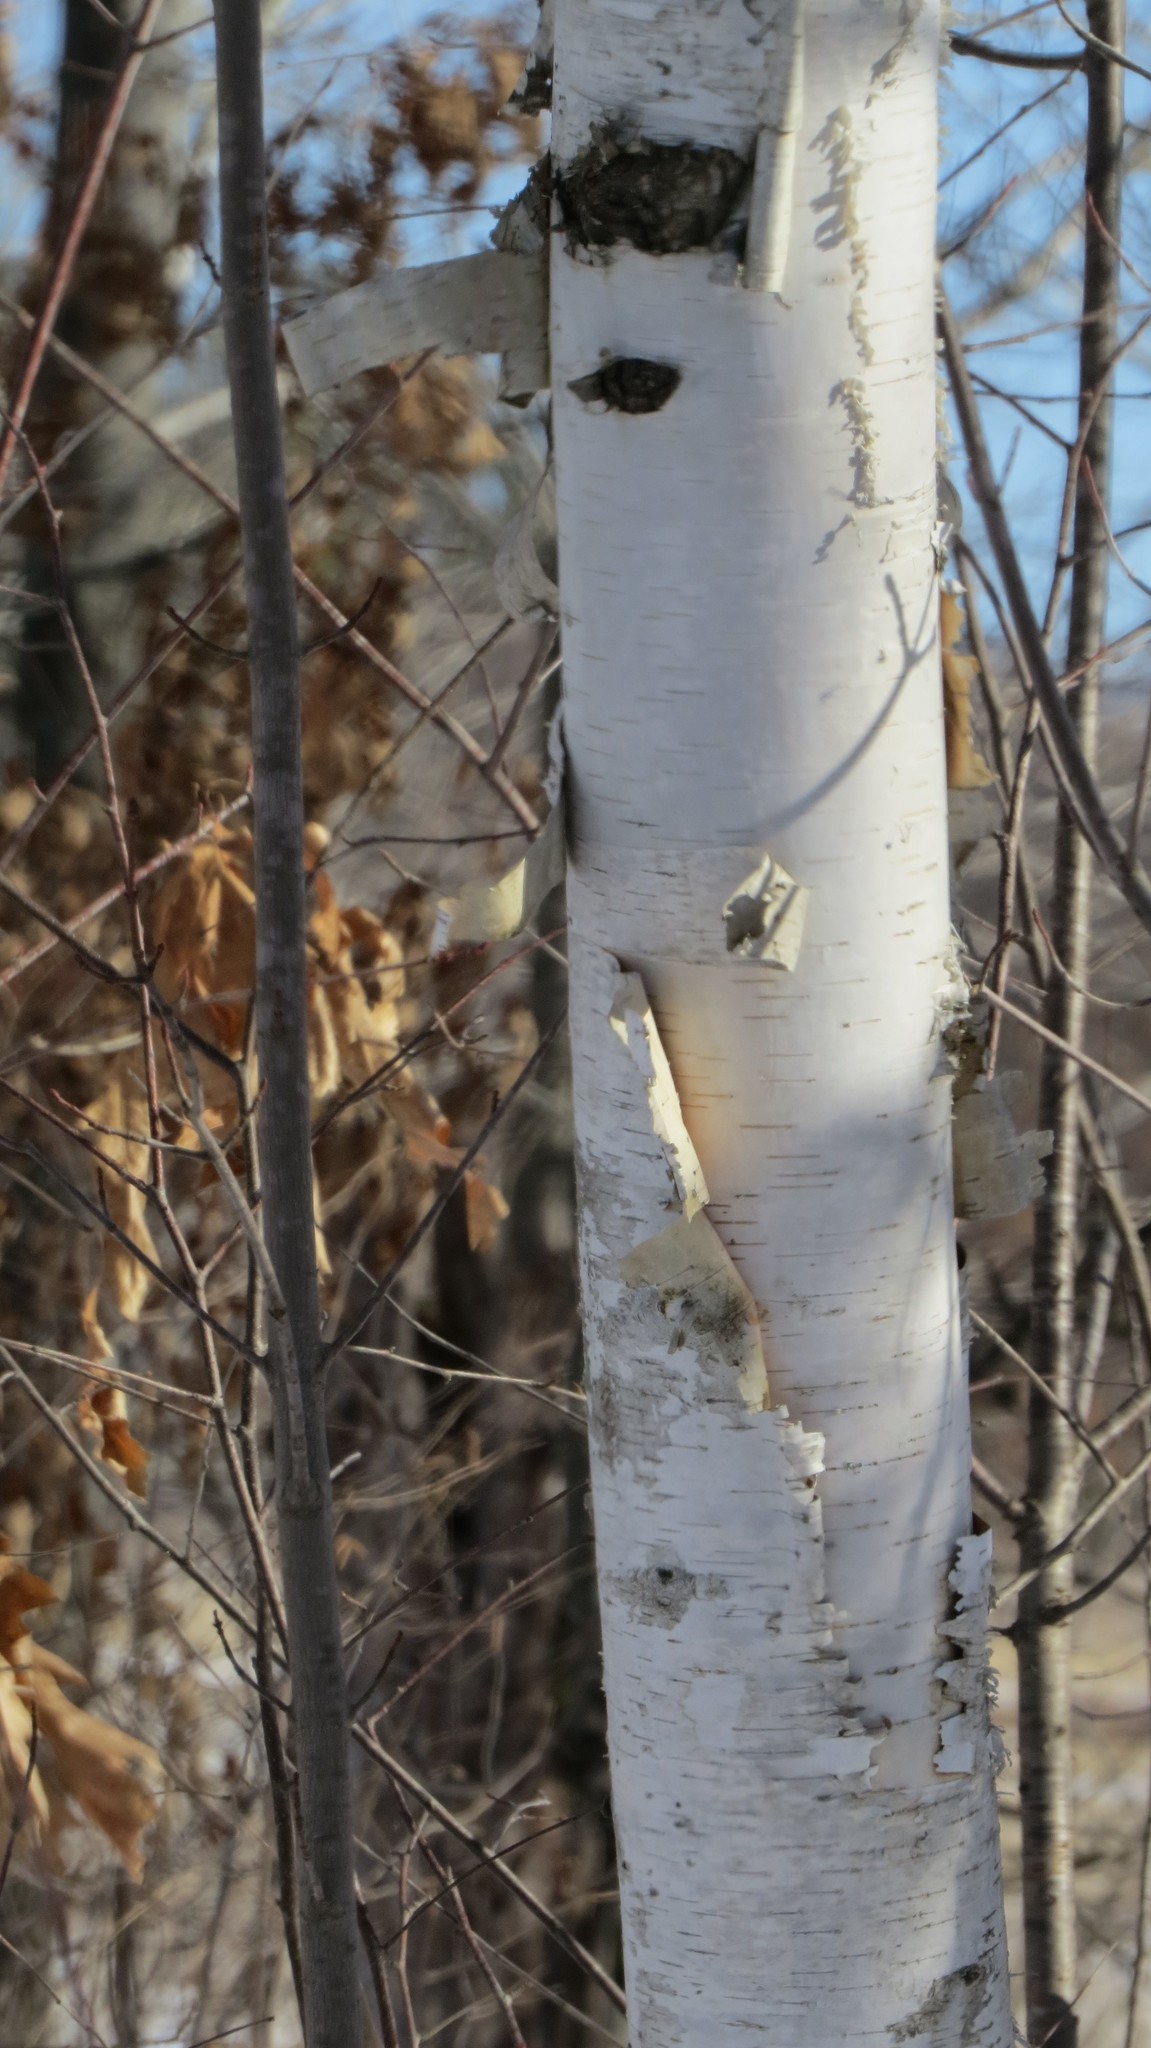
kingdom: Plantae
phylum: Tracheophyta
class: Magnoliopsida
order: Fagales
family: Betulaceae
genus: Betula
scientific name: Betula papyrifera
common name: Paper birch
